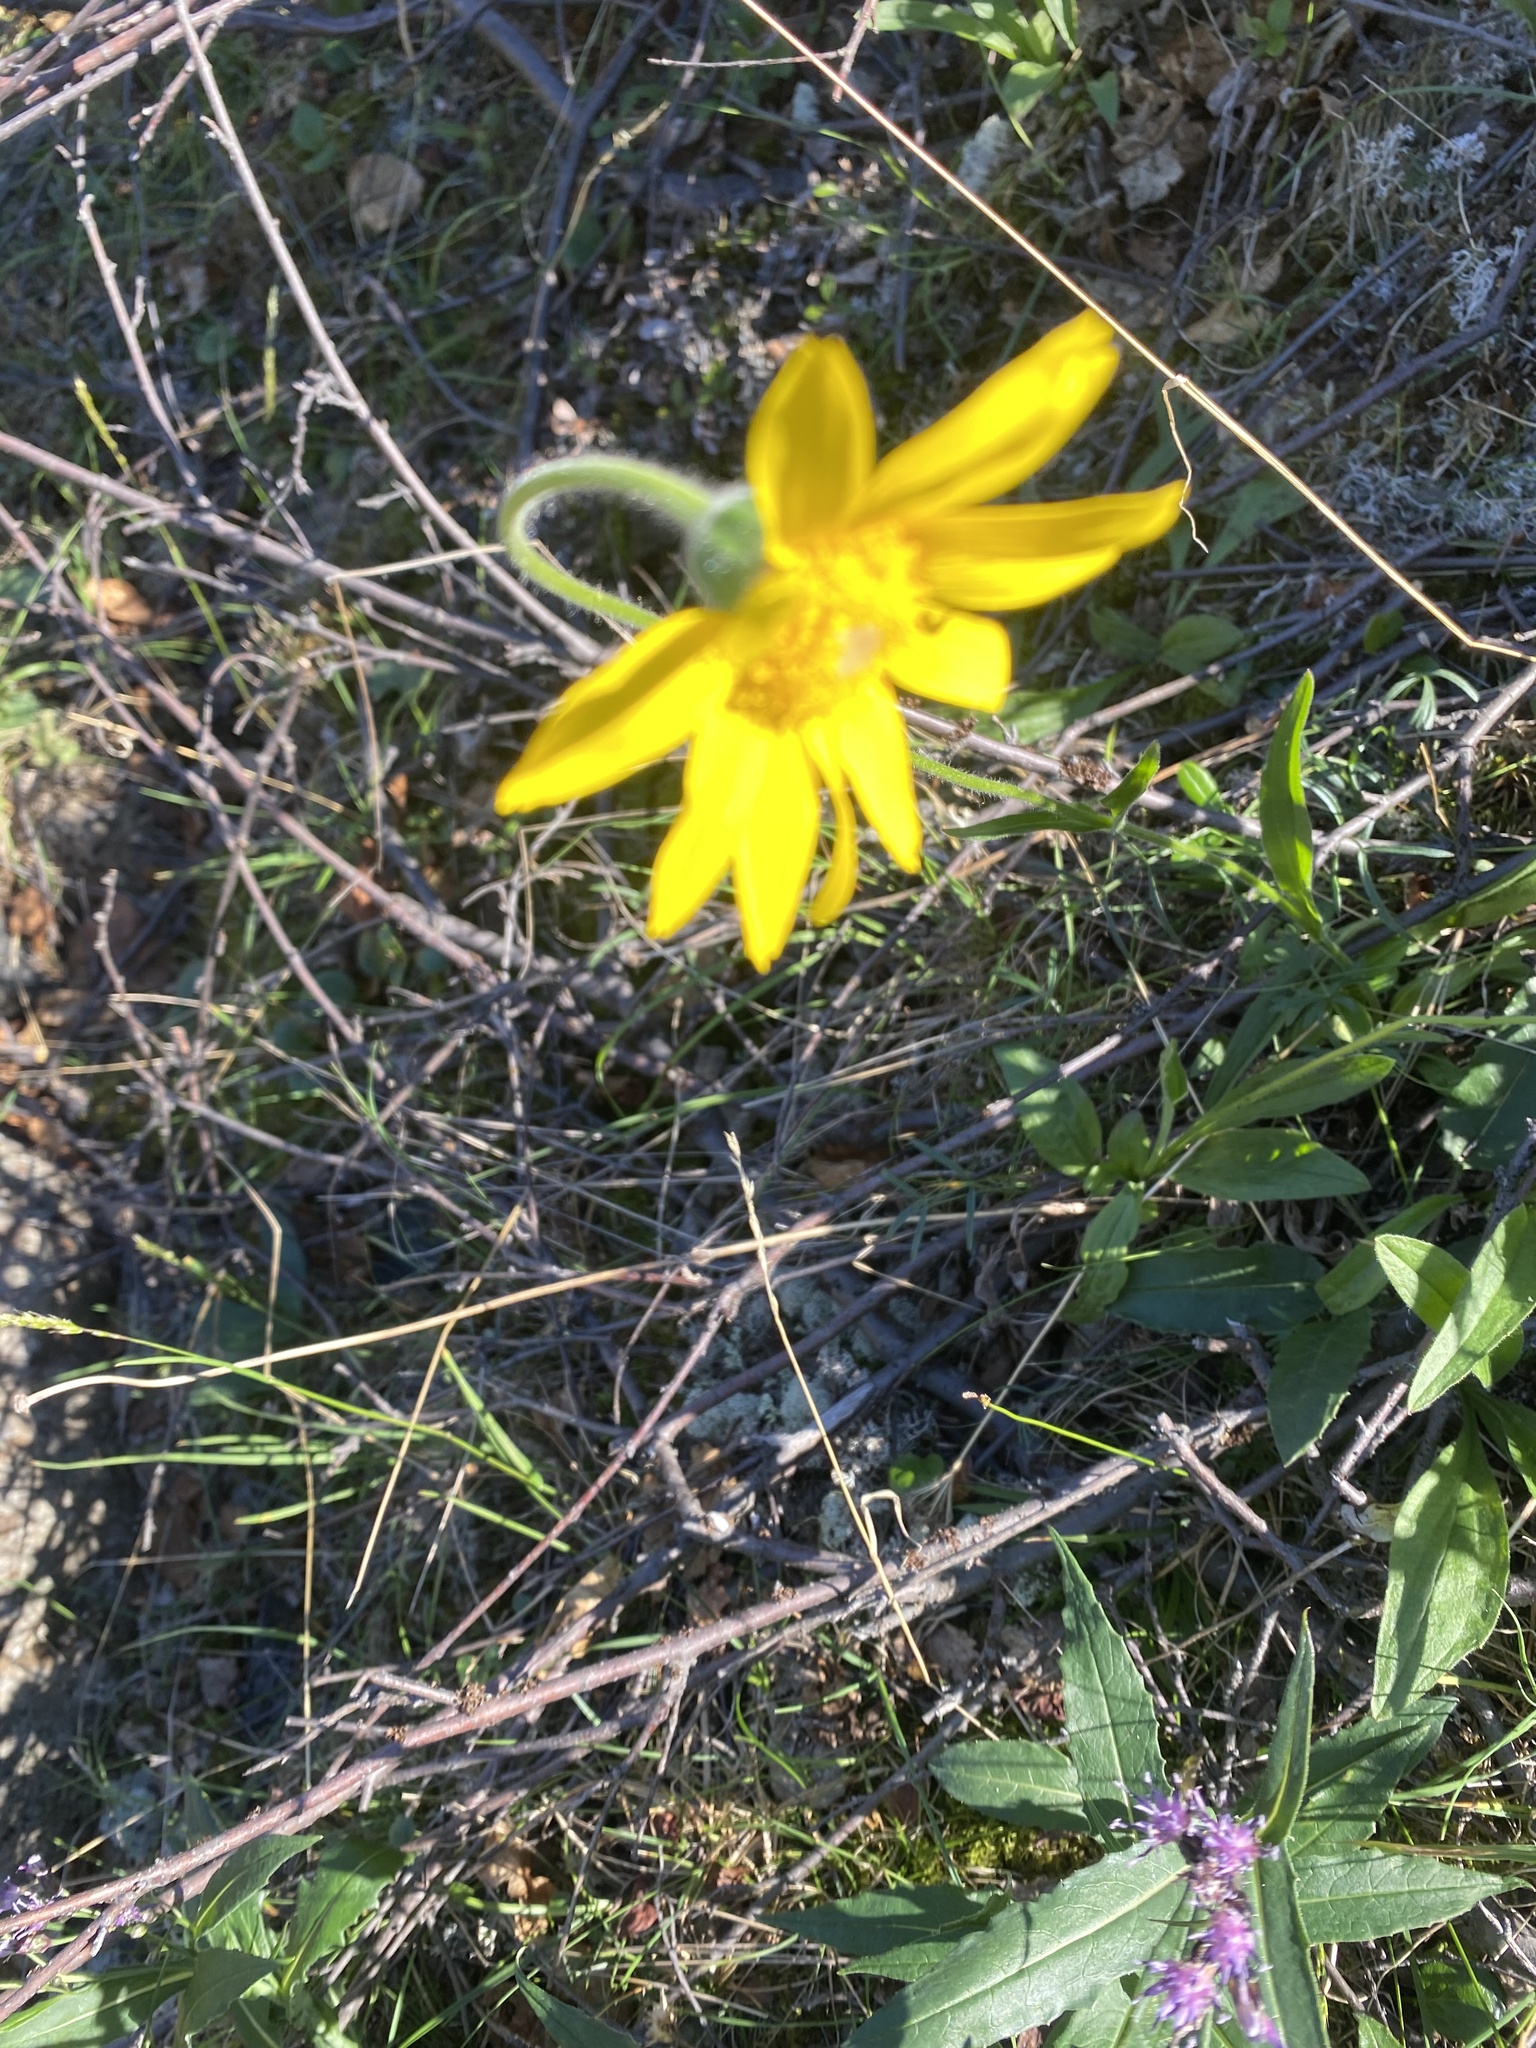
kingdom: Plantae
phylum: Tracheophyta
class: Magnoliopsida
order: Asterales
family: Asteraceae
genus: Arnica
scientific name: Arnica angustifolia
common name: Arctic arnica
